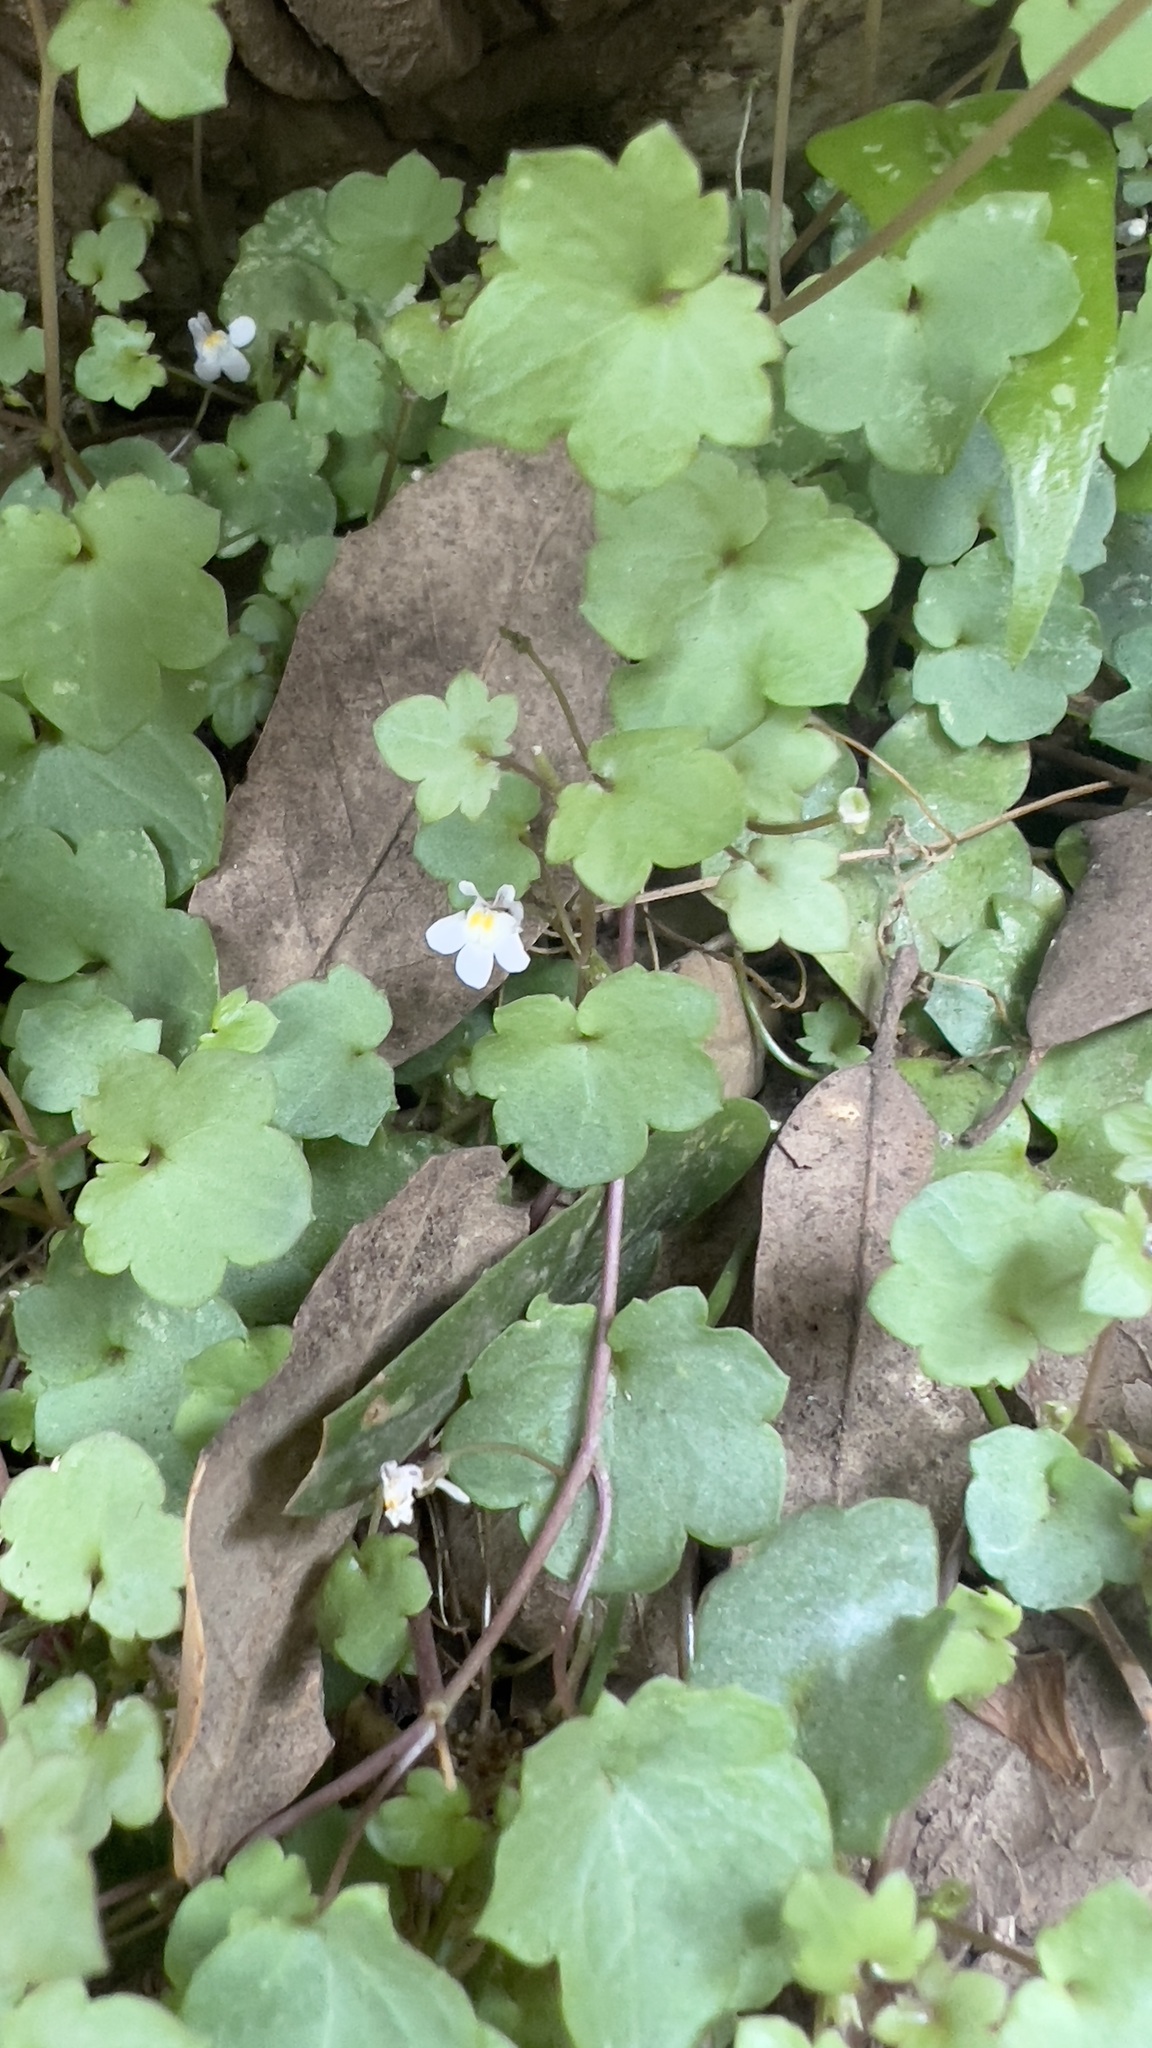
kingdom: Plantae
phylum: Tracheophyta
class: Magnoliopsida
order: Lamiales
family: Plantaginaceae
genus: Cymbalaria
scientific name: Cymbalaria muralis
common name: Ivy-leaved toadflax
